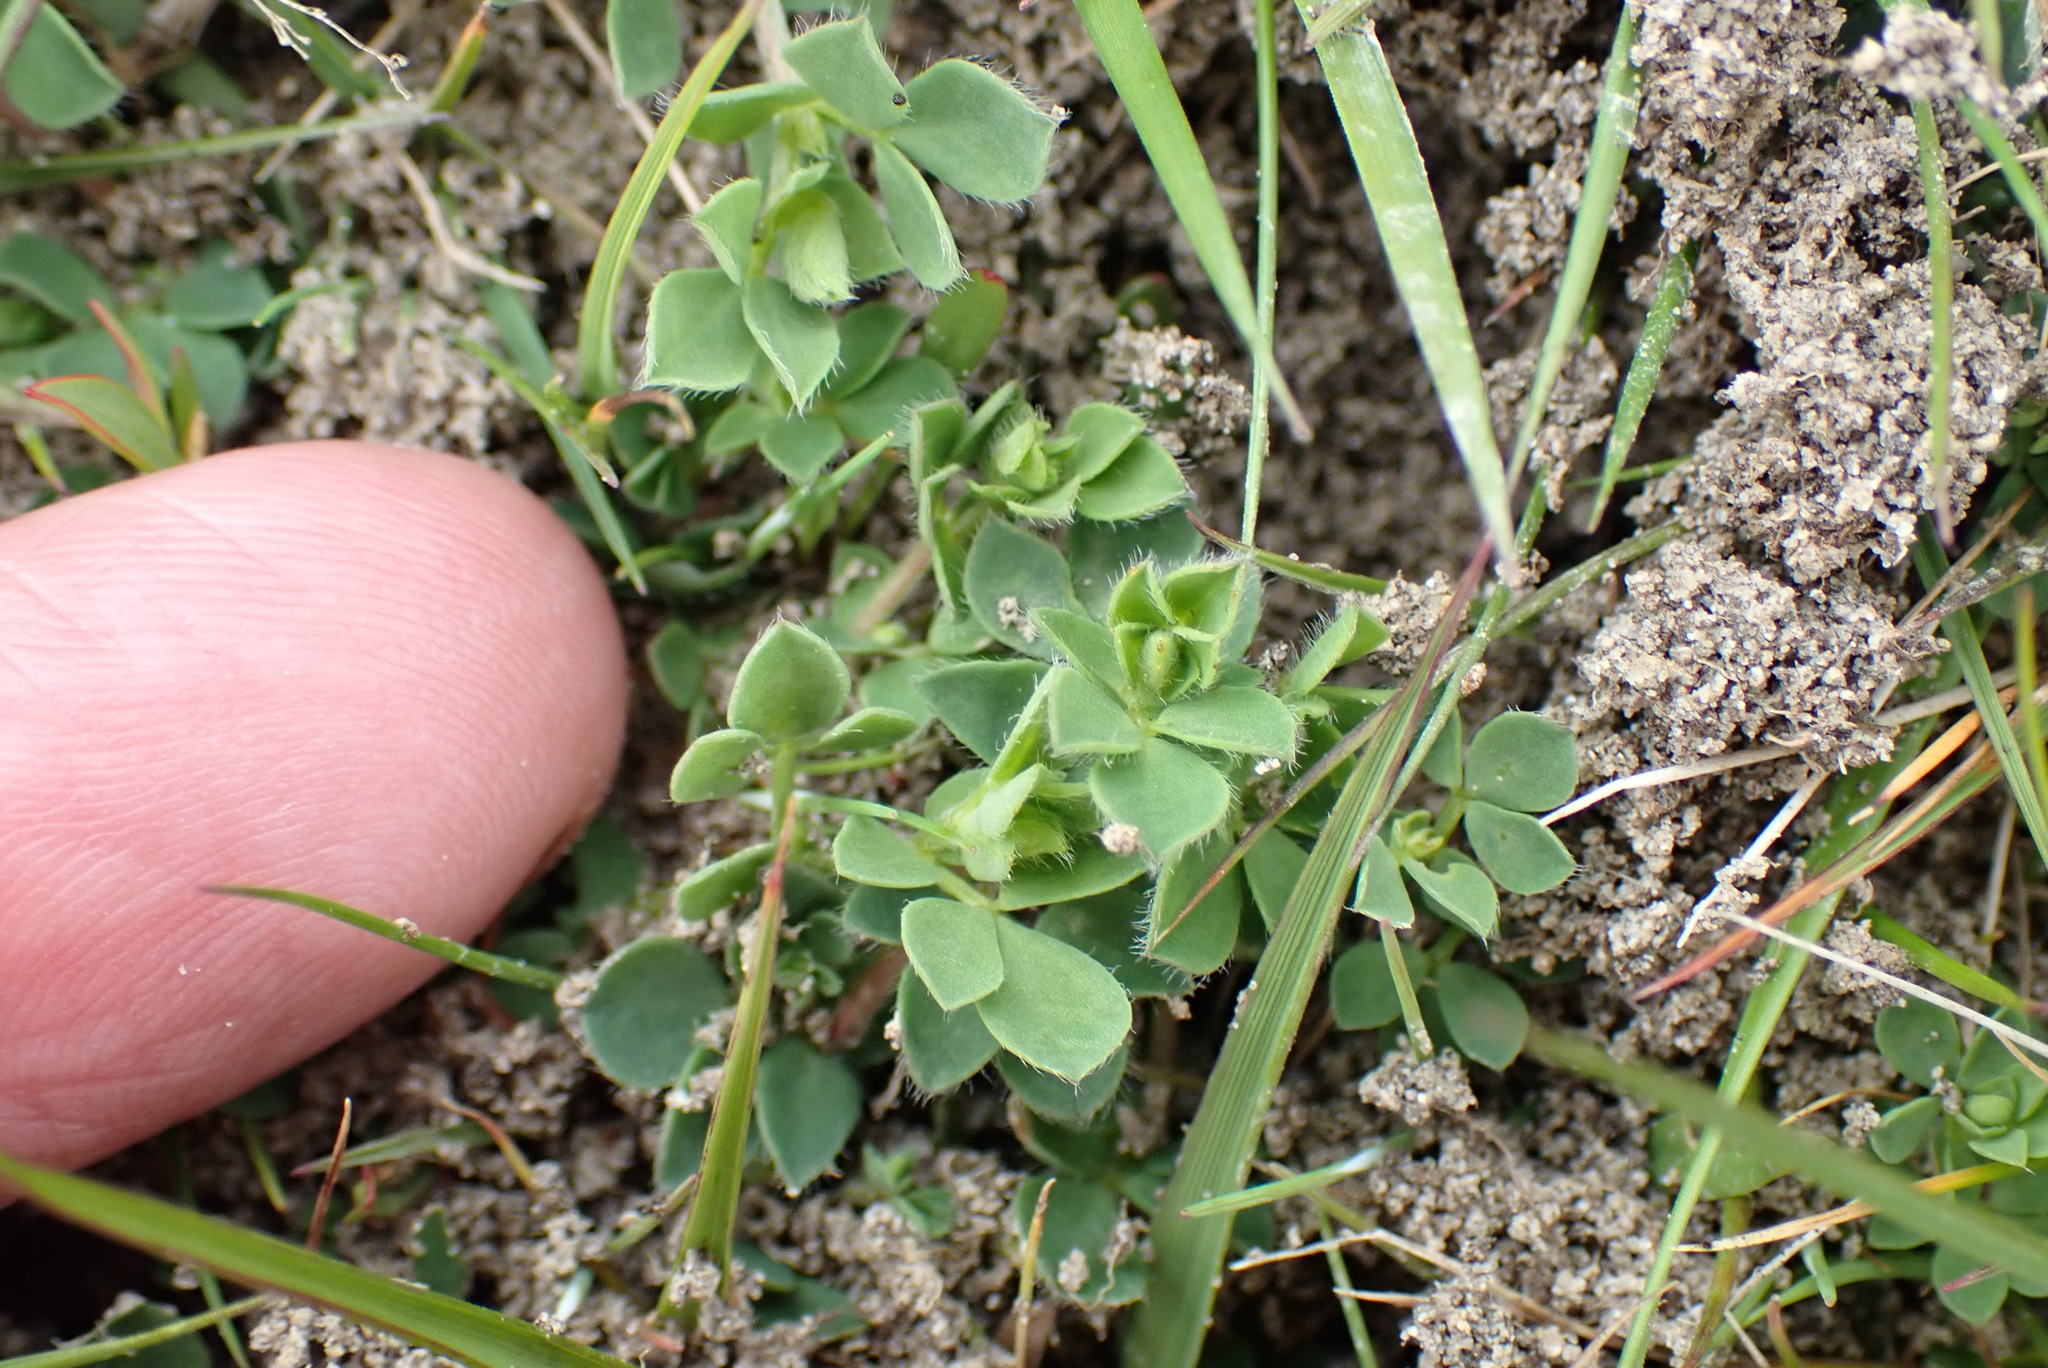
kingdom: Plantae
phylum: Tracheophyta
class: Magnoliopsida
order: Fabales
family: Fabaceae
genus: Lotus
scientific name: Lotus corniculatus
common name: Common bird's-foot-trefoil
